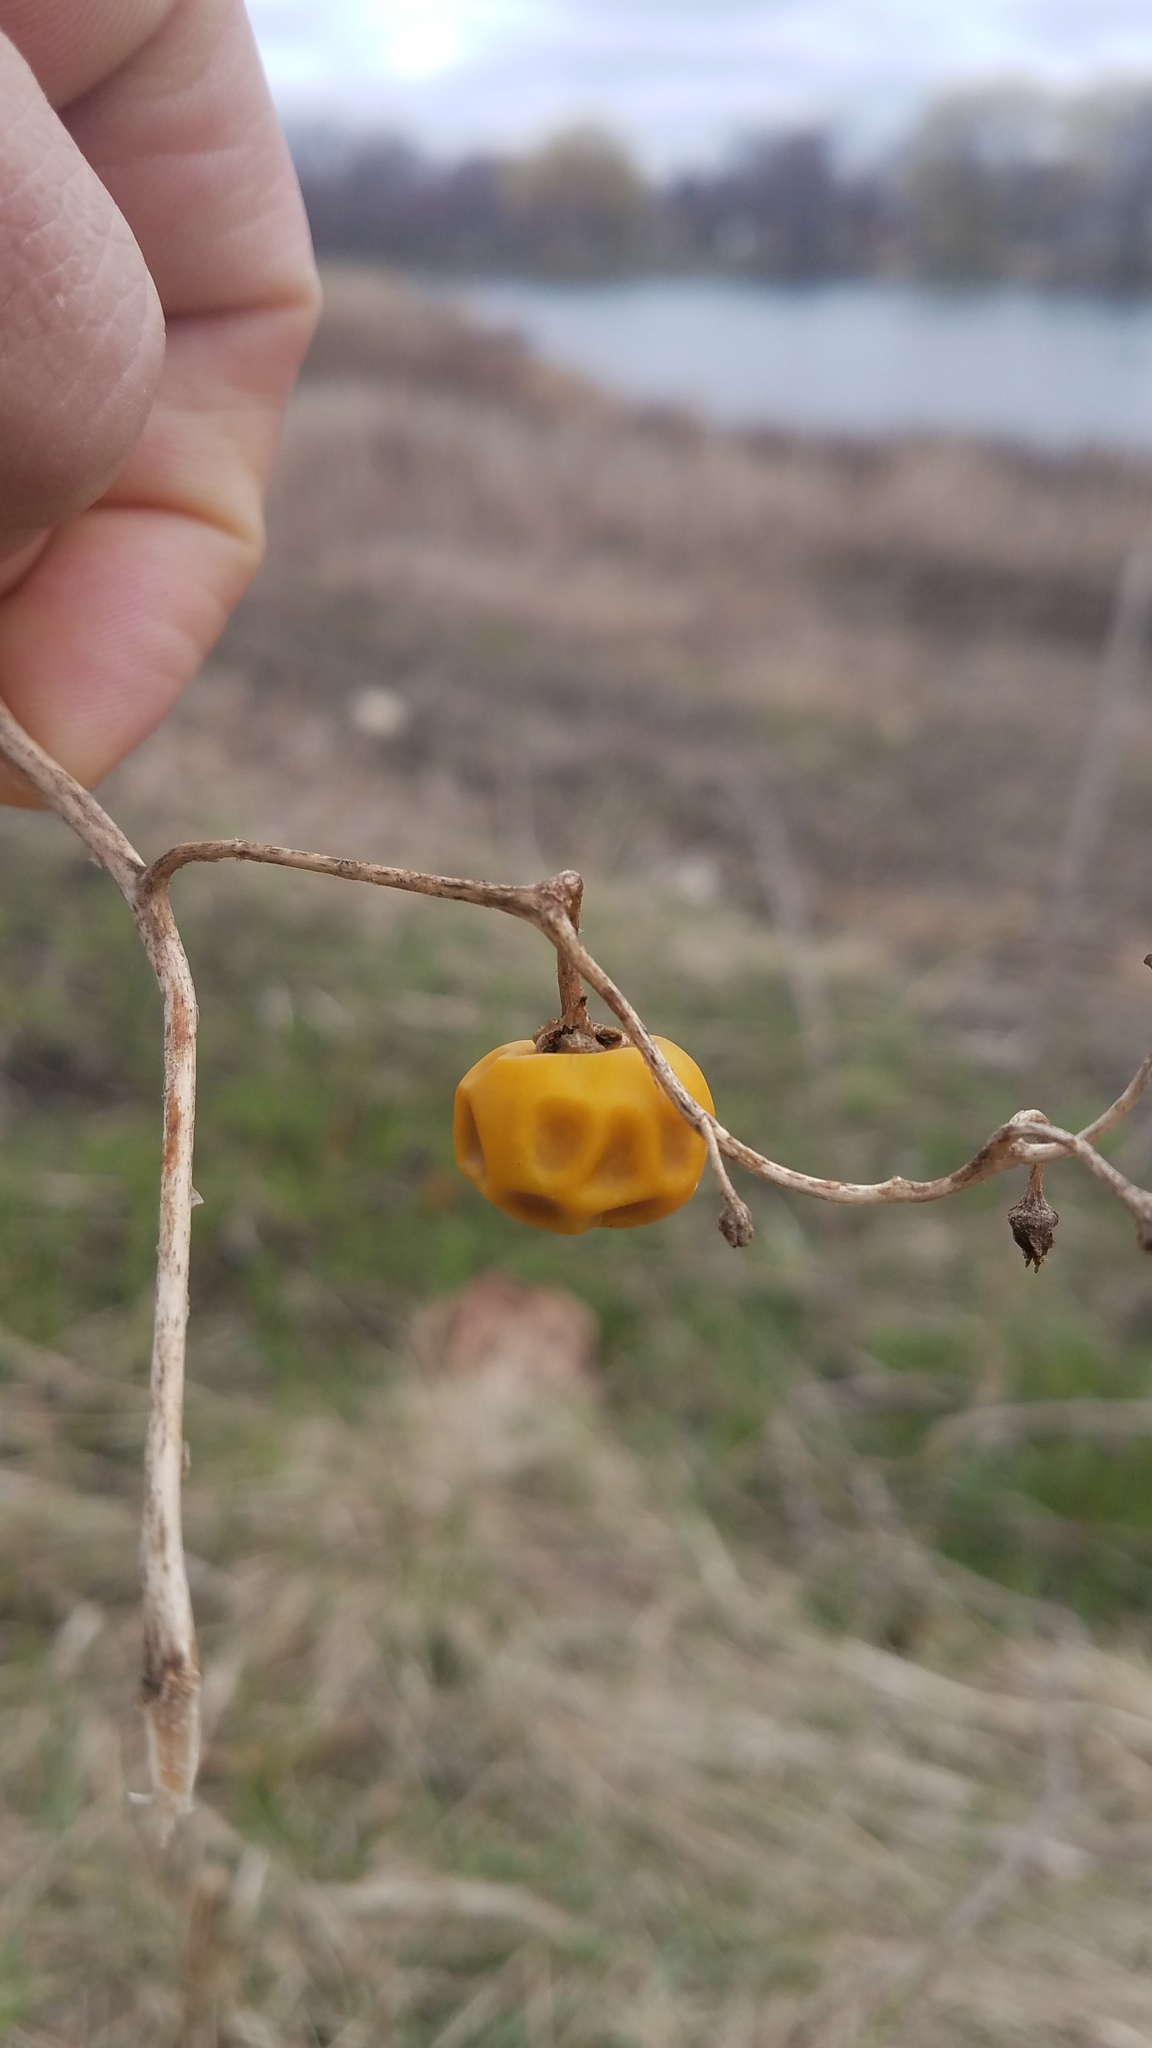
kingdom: Plantae
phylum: Tracheophyta
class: Magnoliopsida
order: Solanales
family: Solanaceae
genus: Solanum
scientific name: Solanum carolinense
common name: Horse-nettle
